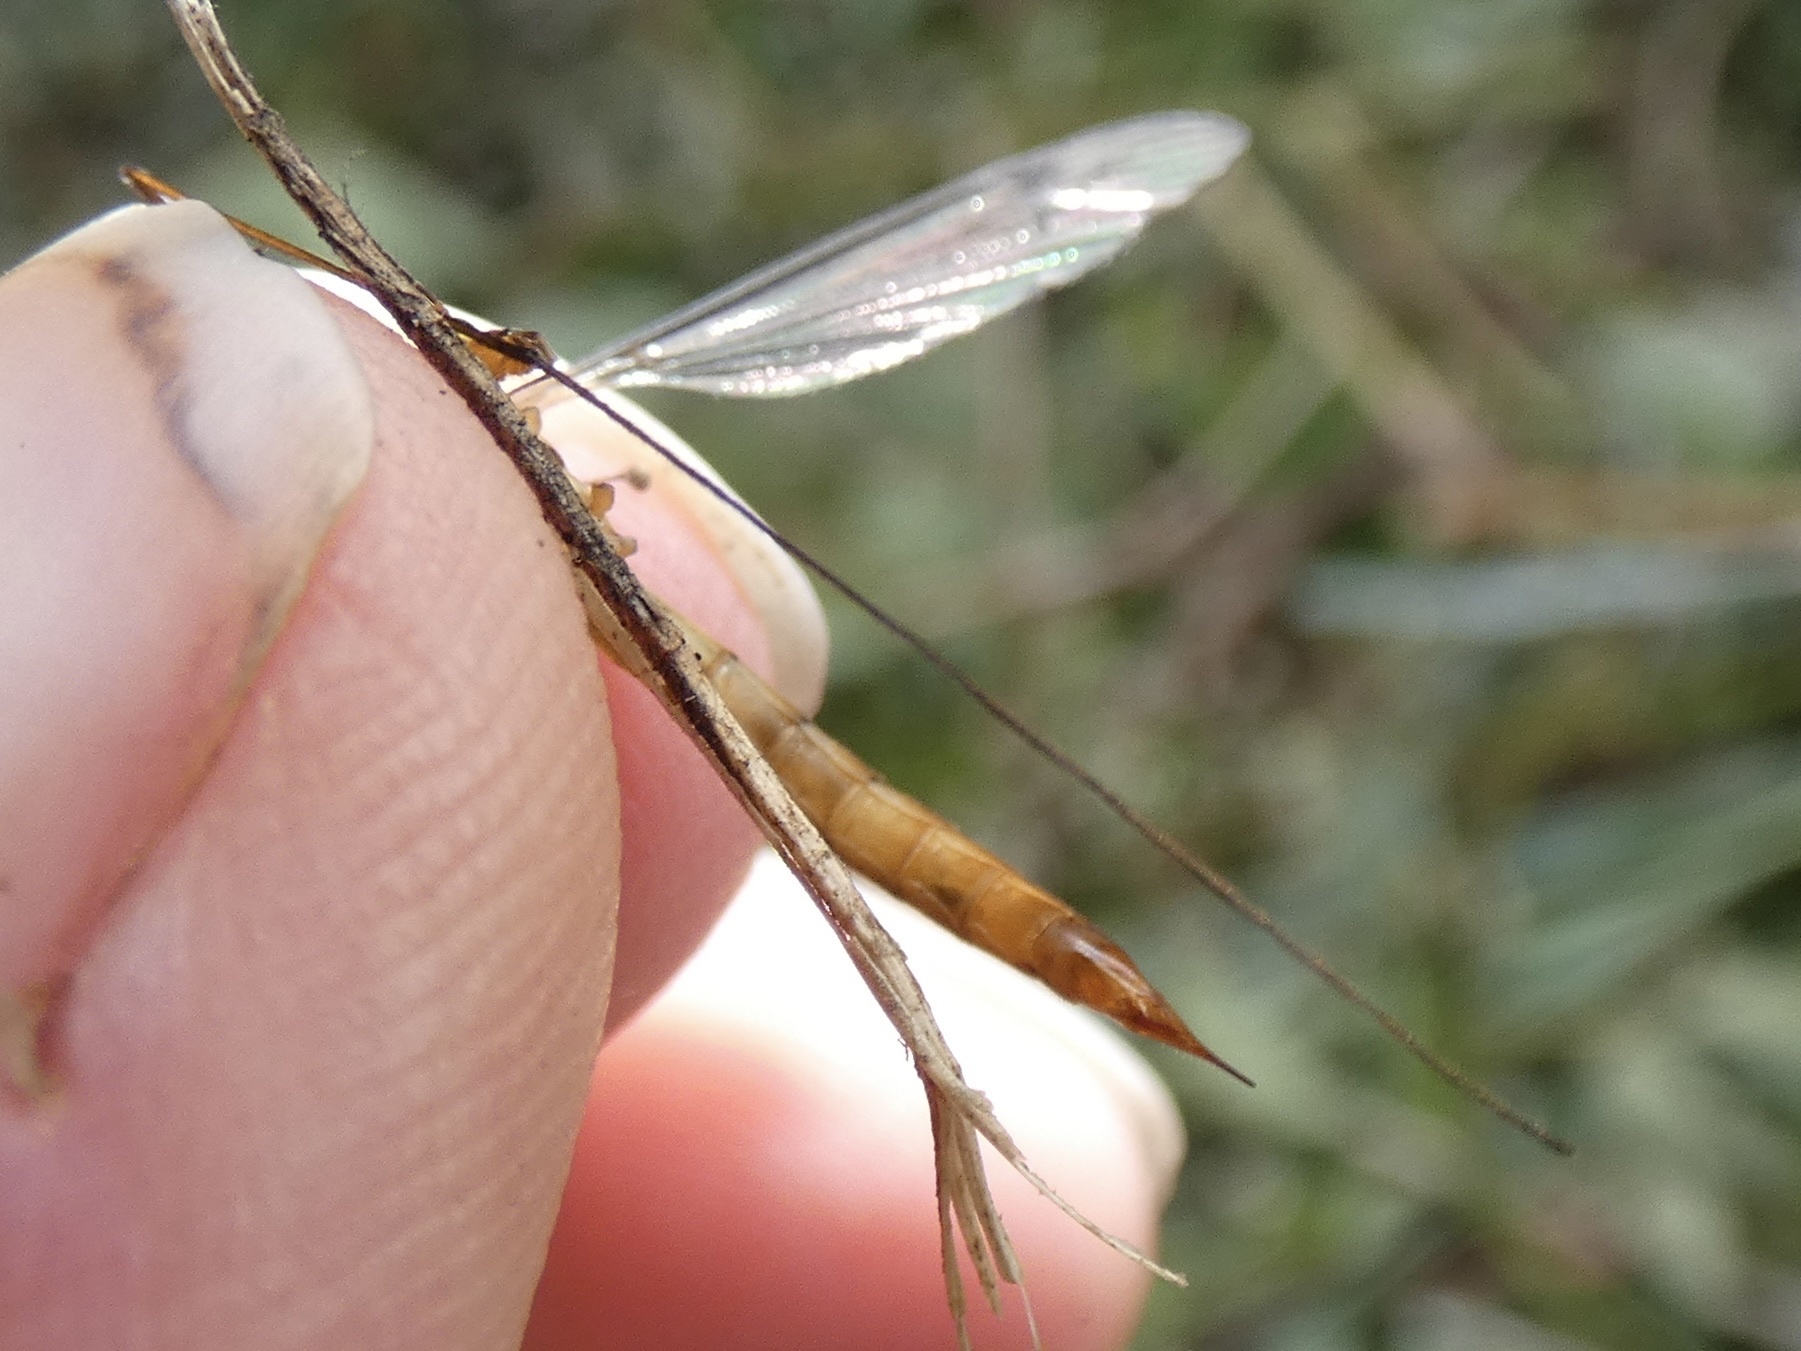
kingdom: Animalia
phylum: Arthropoda
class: Insecta
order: Diptera
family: Tipulidae
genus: Nephrotoma
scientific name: Nephrotoma flavipalpis
